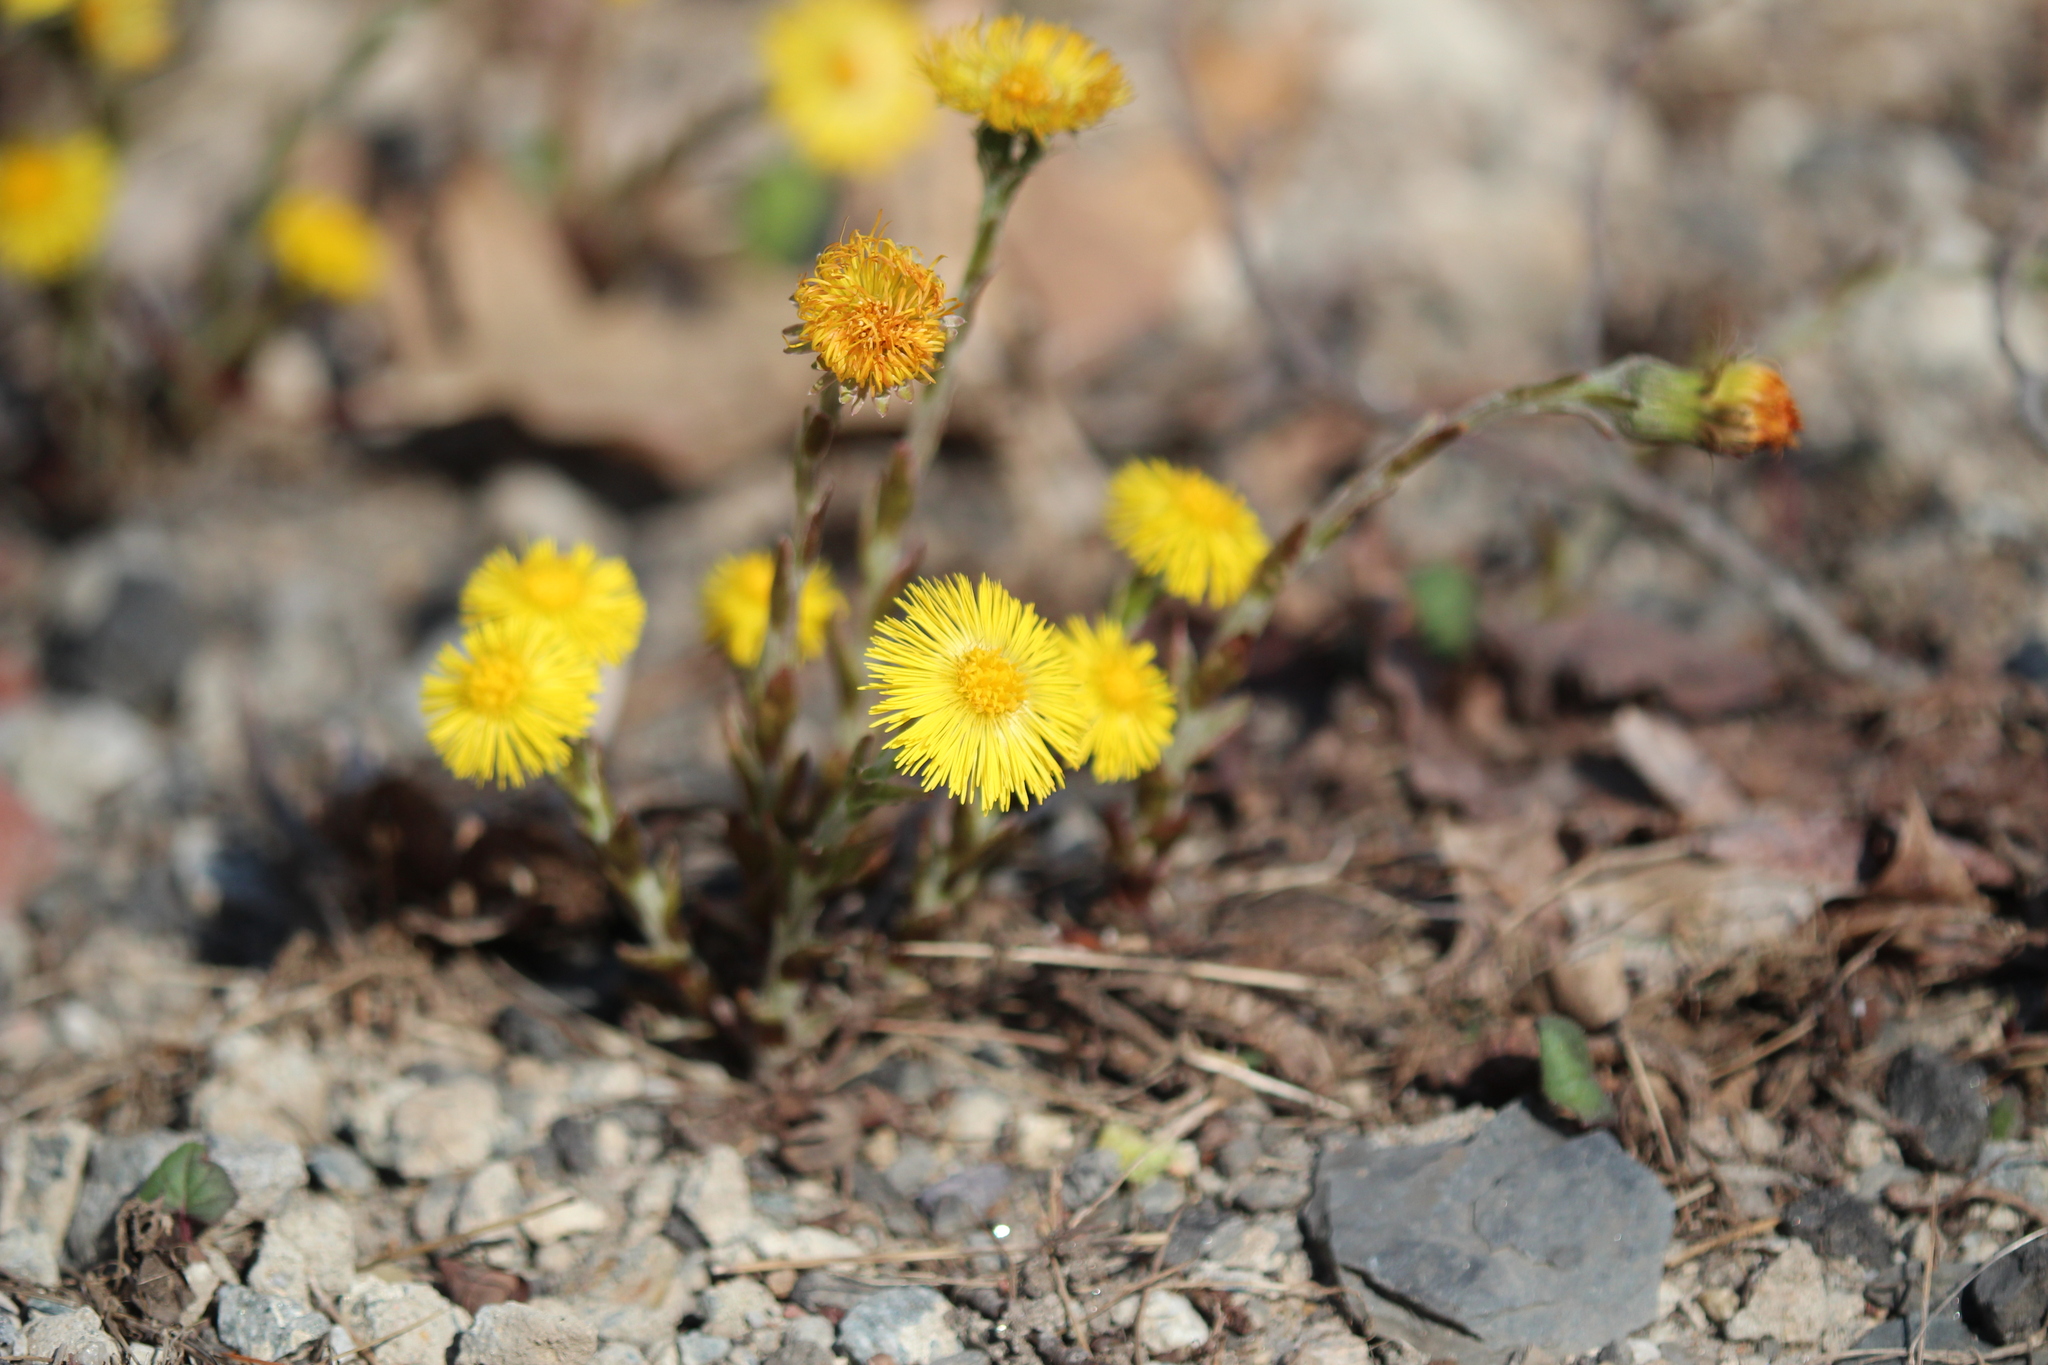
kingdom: Plantae
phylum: Tracheophyta
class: Magnoliopsida
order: Asterales
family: Asteraceae
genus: Tussilago
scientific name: Tussilago farfara
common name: Coltsfoot
